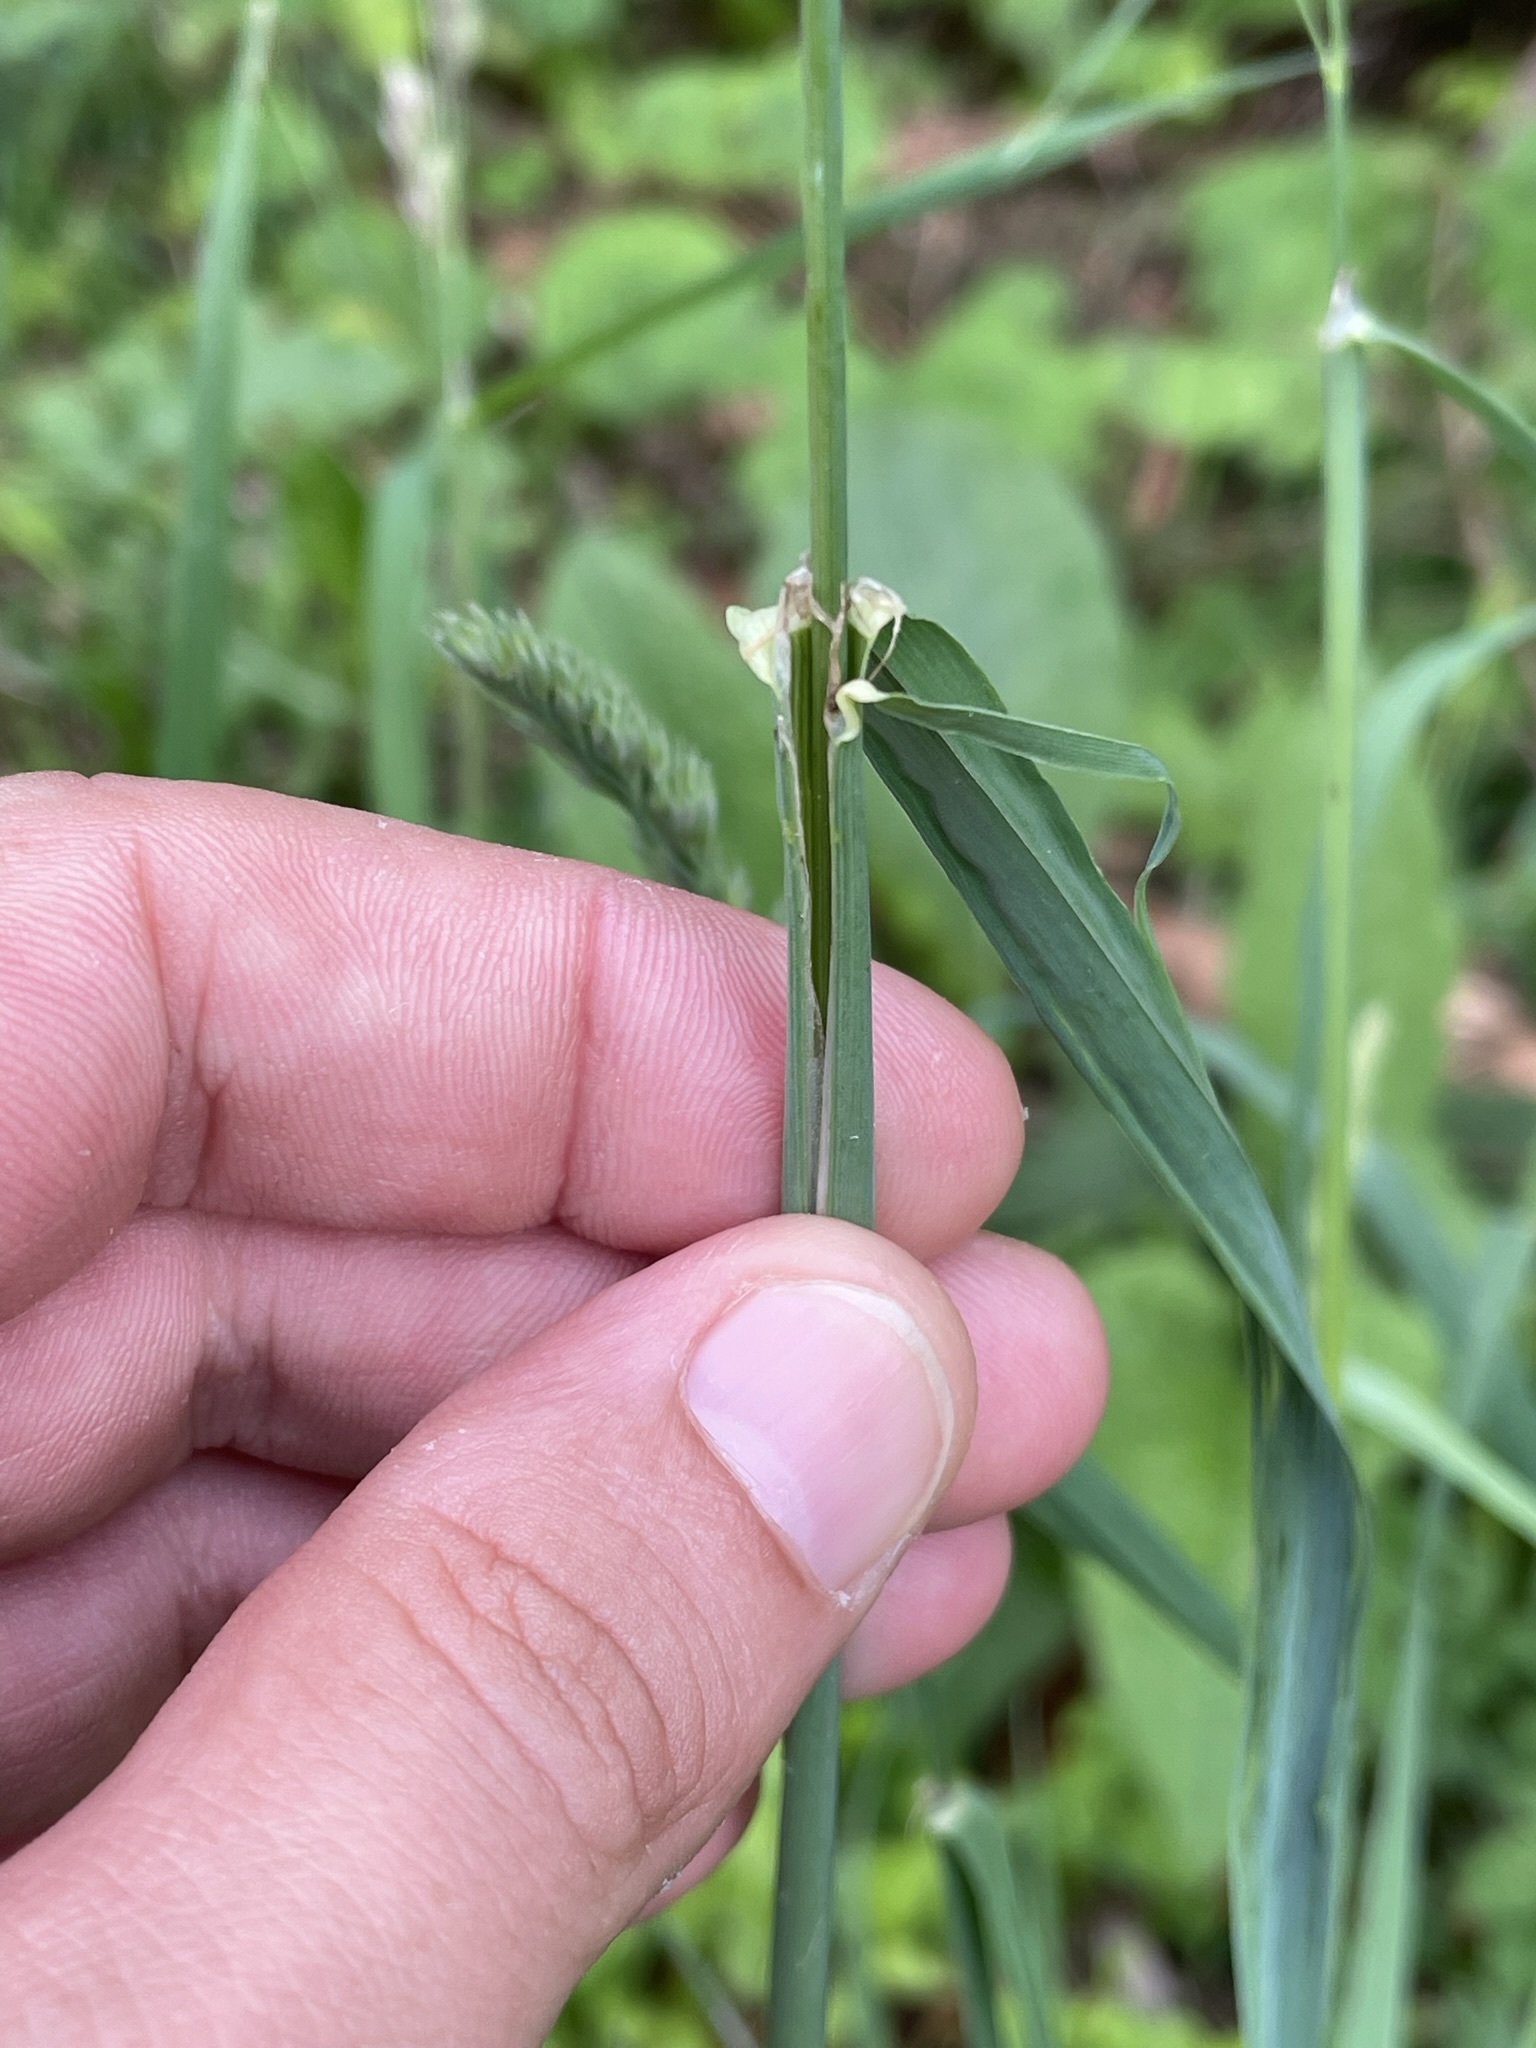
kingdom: Plantae
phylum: Tracheophyta
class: Liliopsida
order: Poales
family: Poaceae
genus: Dactylis
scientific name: Dactylis glomerata
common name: Orchardgrass
